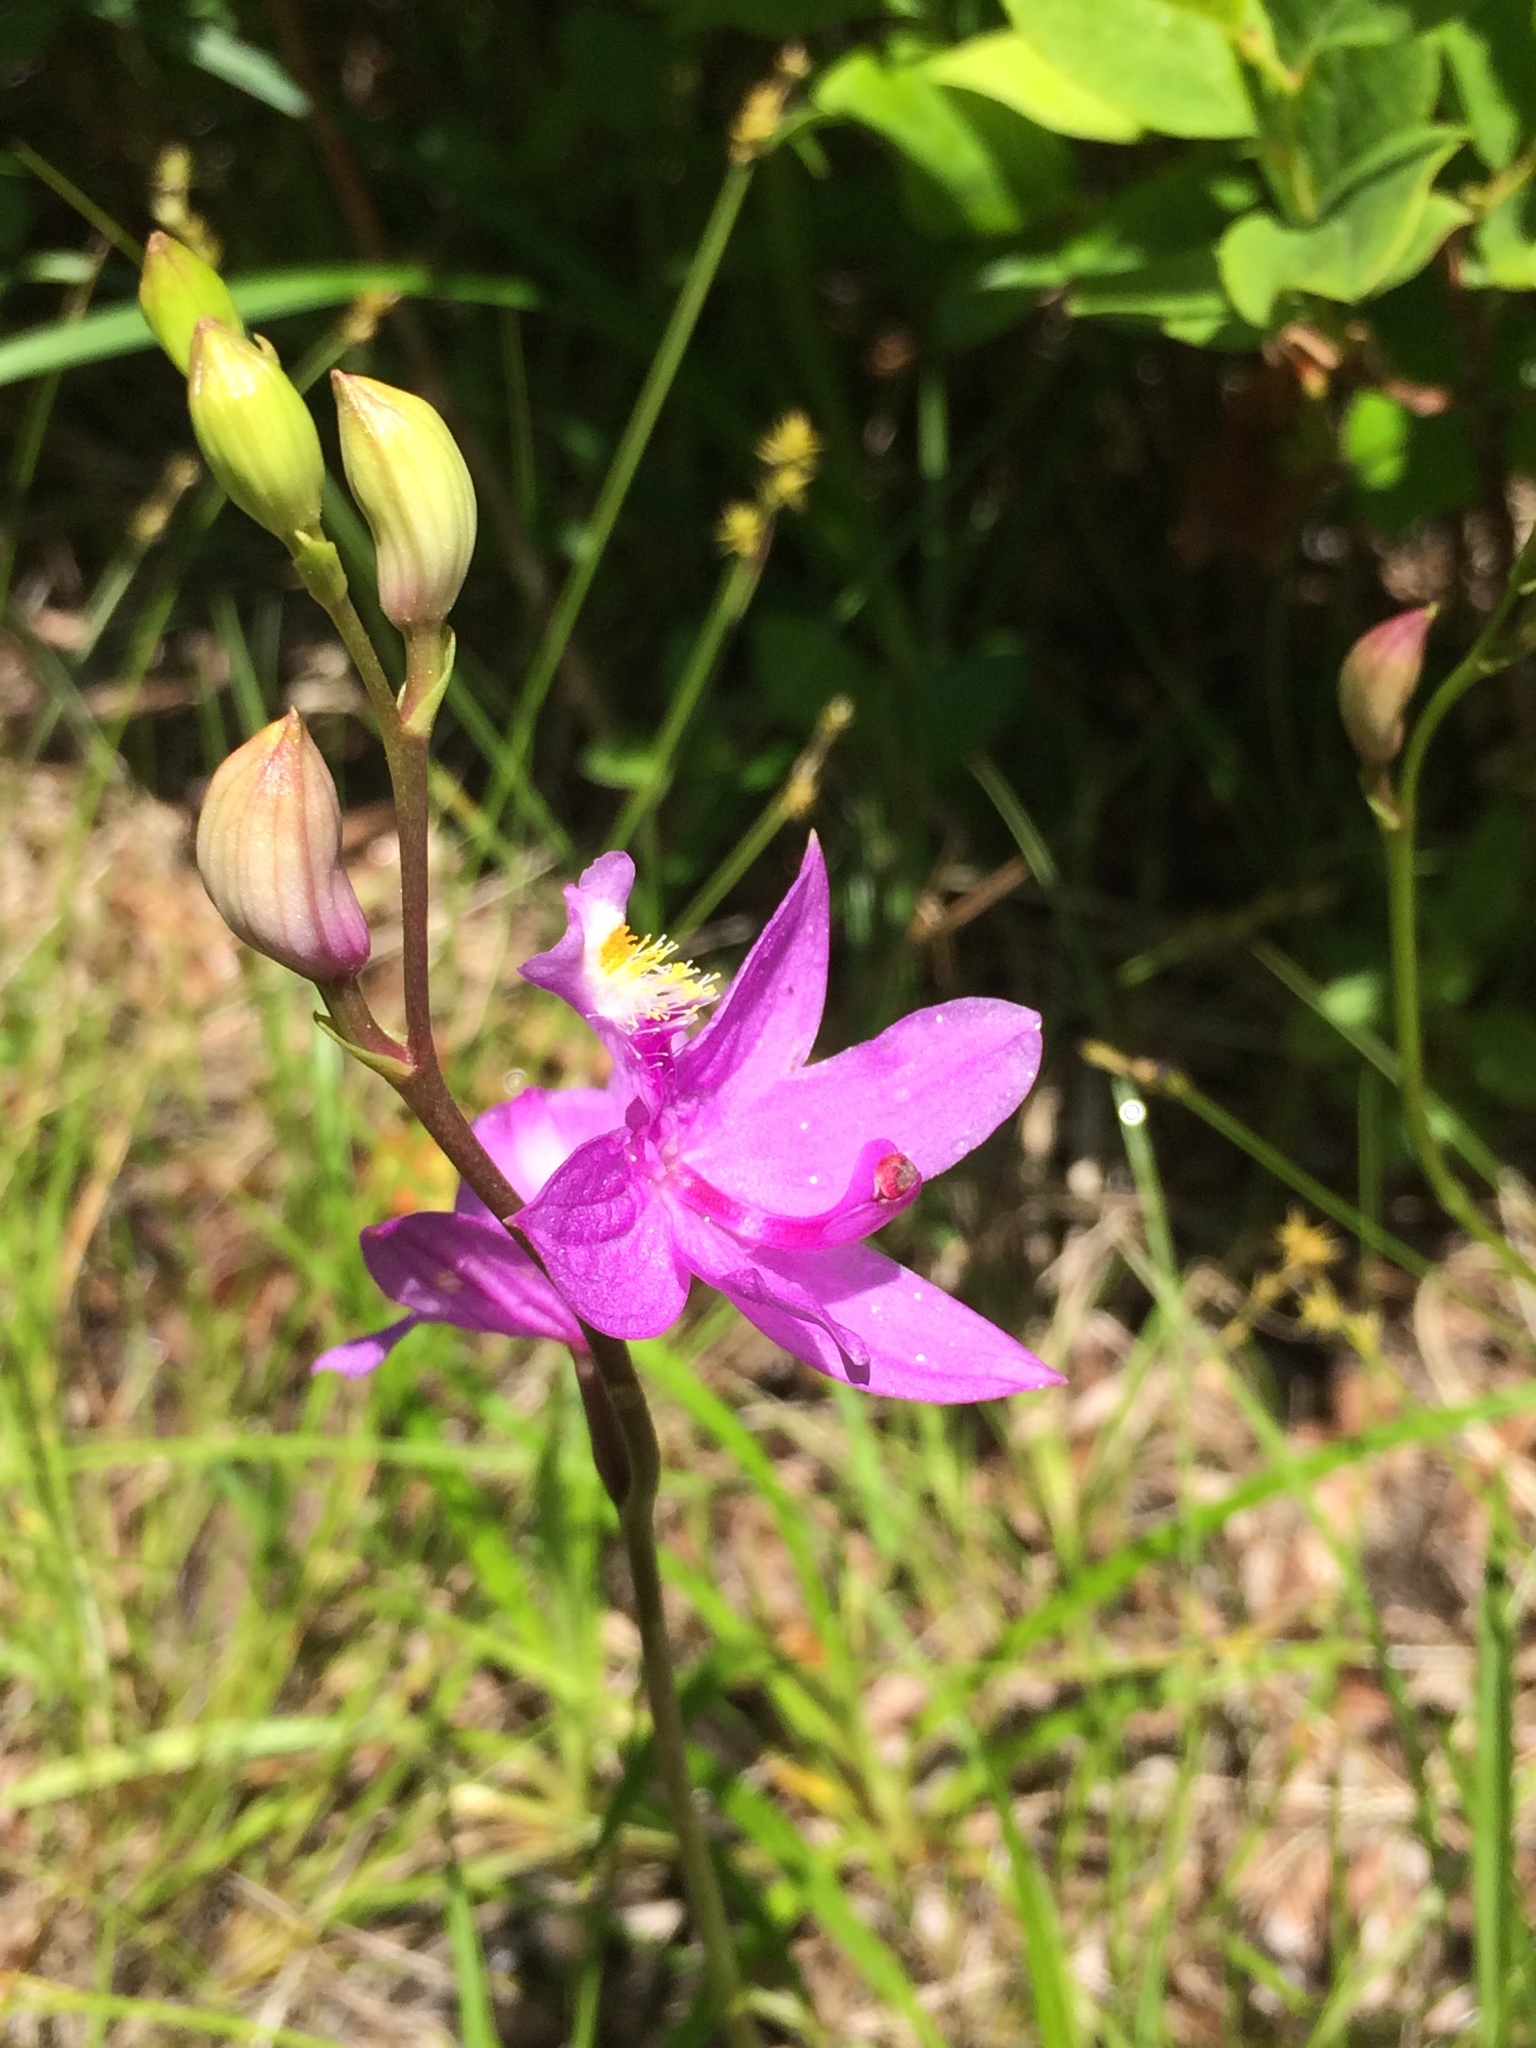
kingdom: Plantae
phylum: Tracheophyta
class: Liliopsida
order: Asparagales
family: Orchidaceae
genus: Calopogon
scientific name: Calopogon tuberosus
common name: Grass-pink
